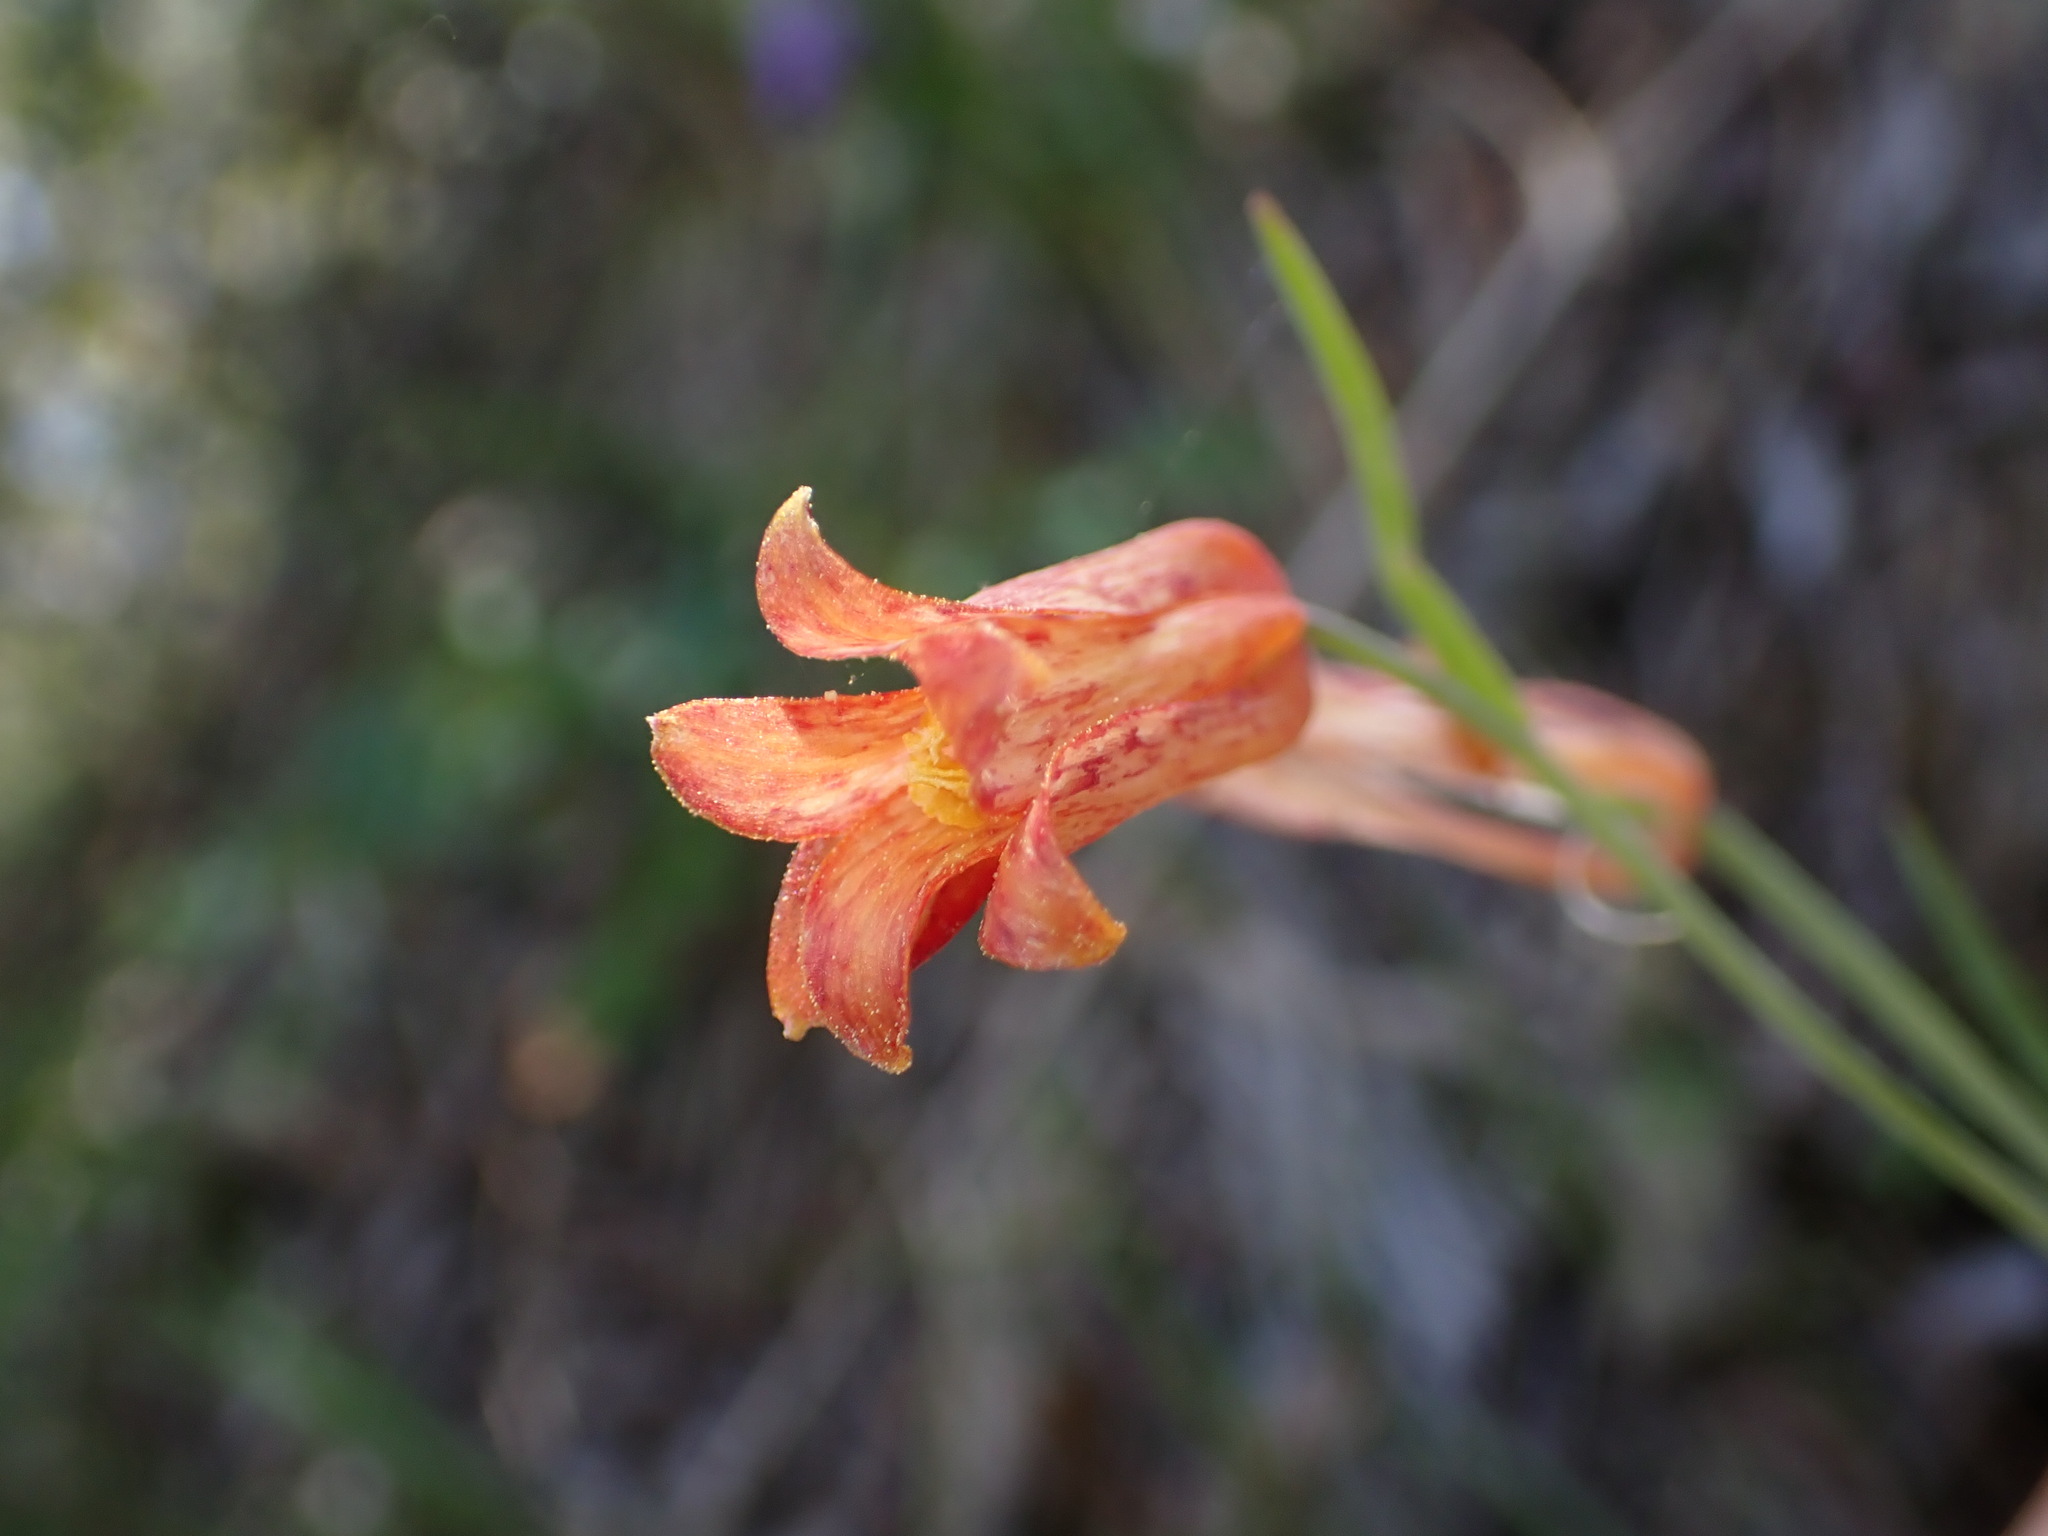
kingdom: Plantae
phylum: Tracheophyta
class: Liliopsida
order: Liliales
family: Liliaceae
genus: Fritillaria
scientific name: Fritillaria recurva
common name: Scarlet fritillary
